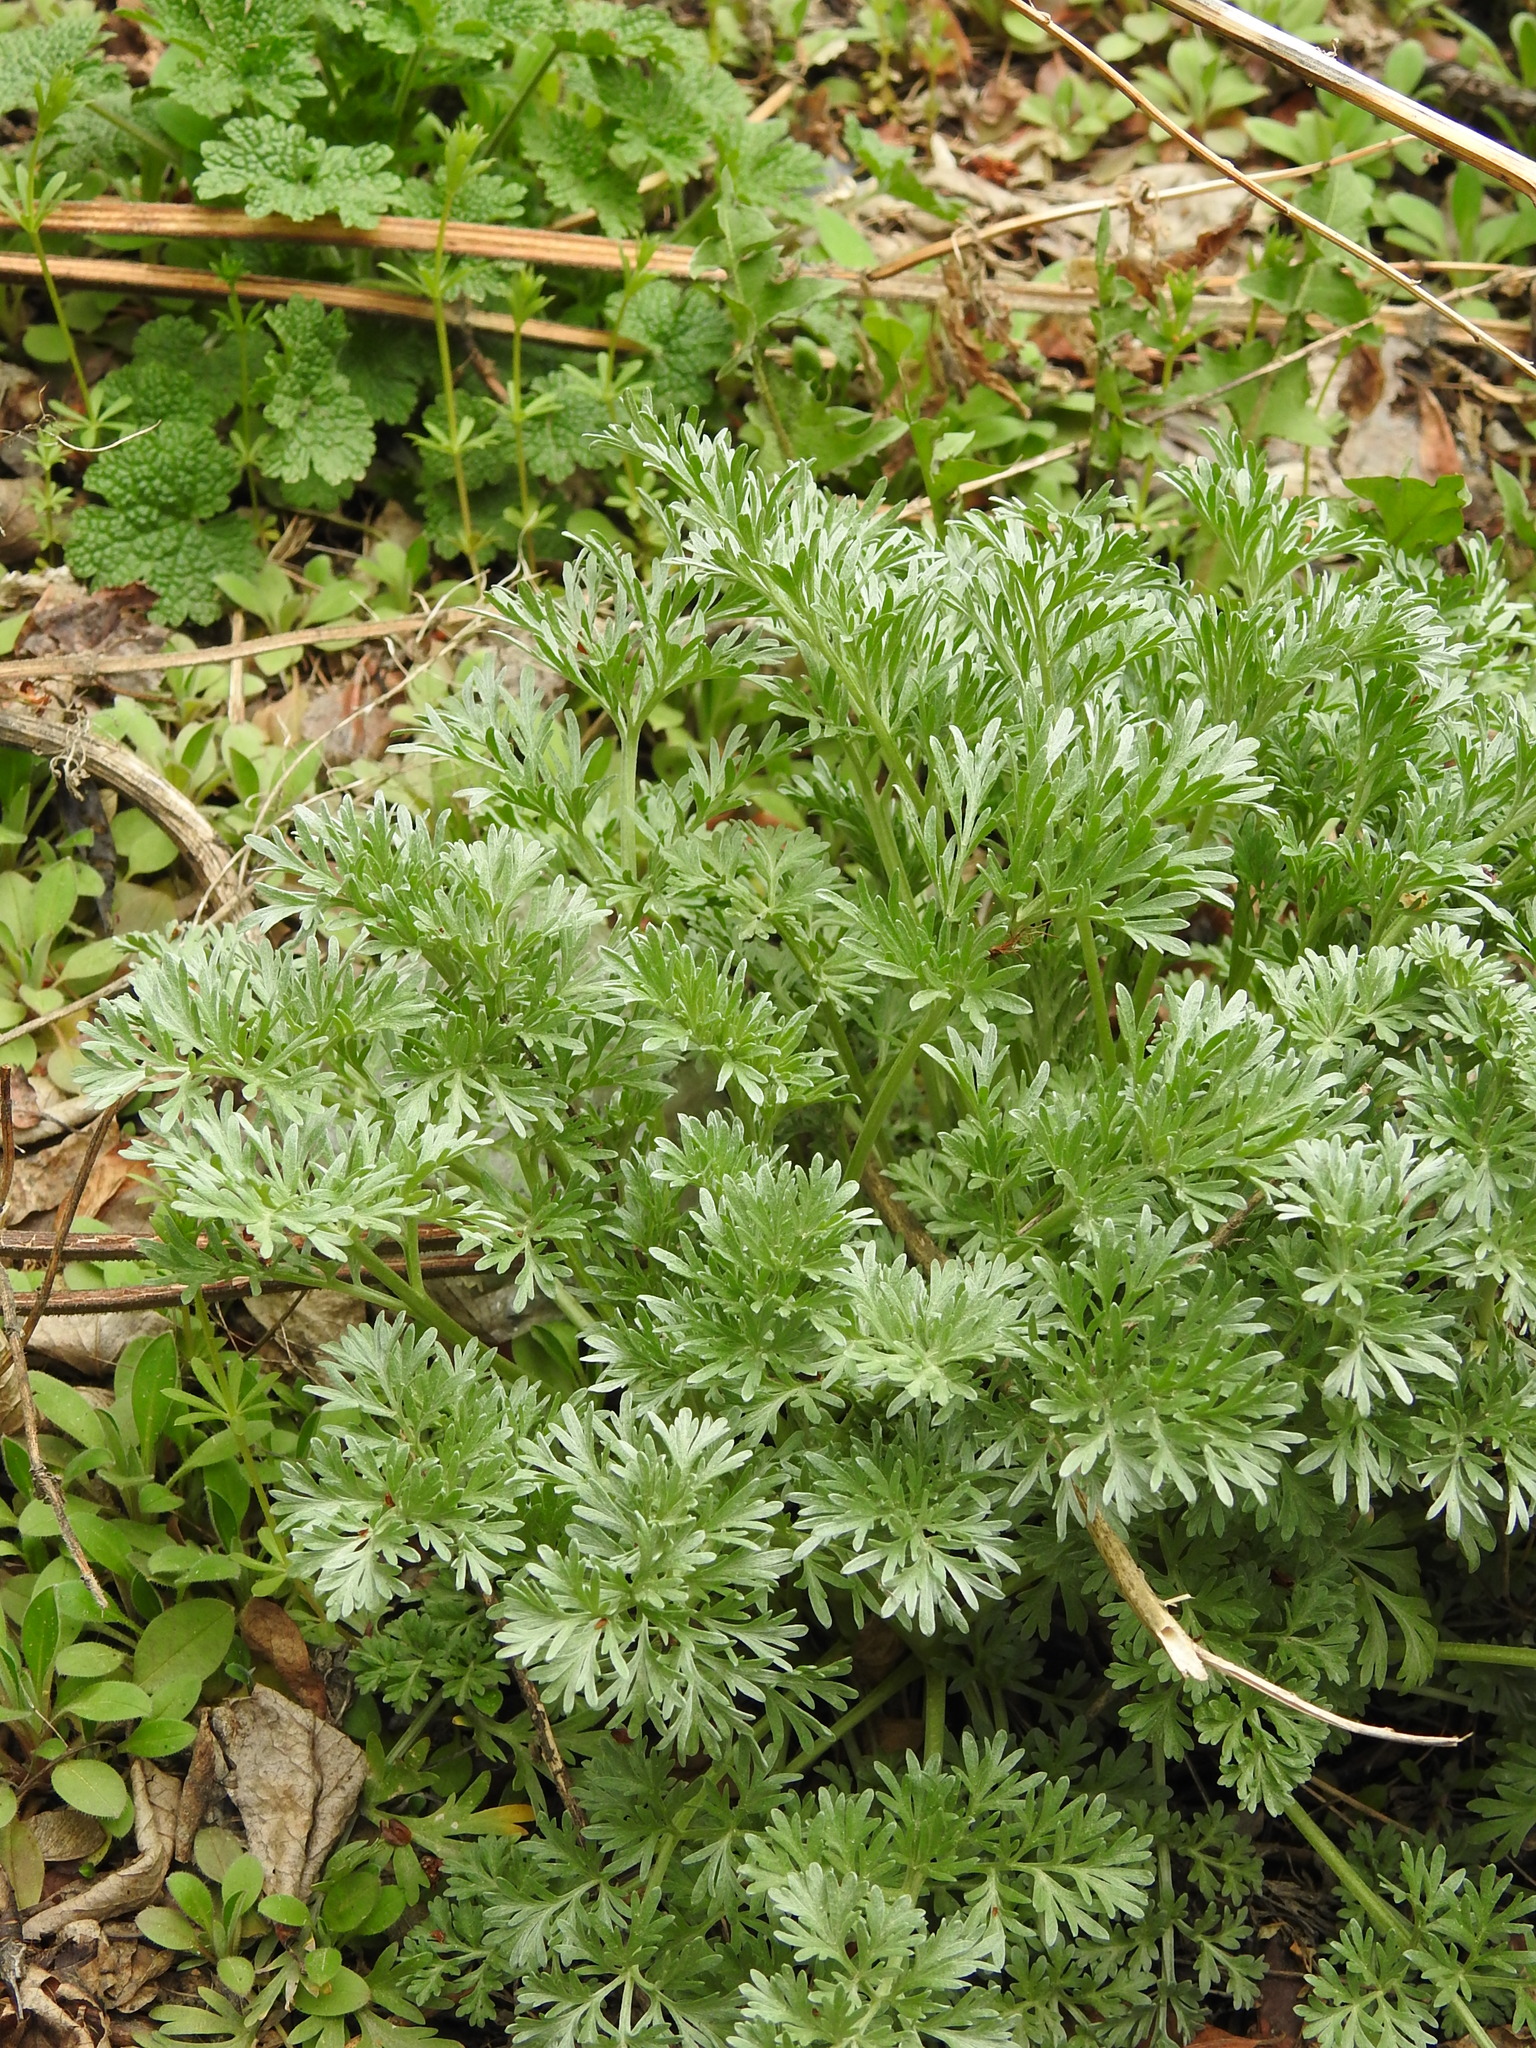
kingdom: Plantae
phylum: Tracheophyta
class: Magnoliopsida
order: Asterales
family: Asteraceae
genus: Artemisia
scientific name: Artemisia absinthium
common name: Wormwood
